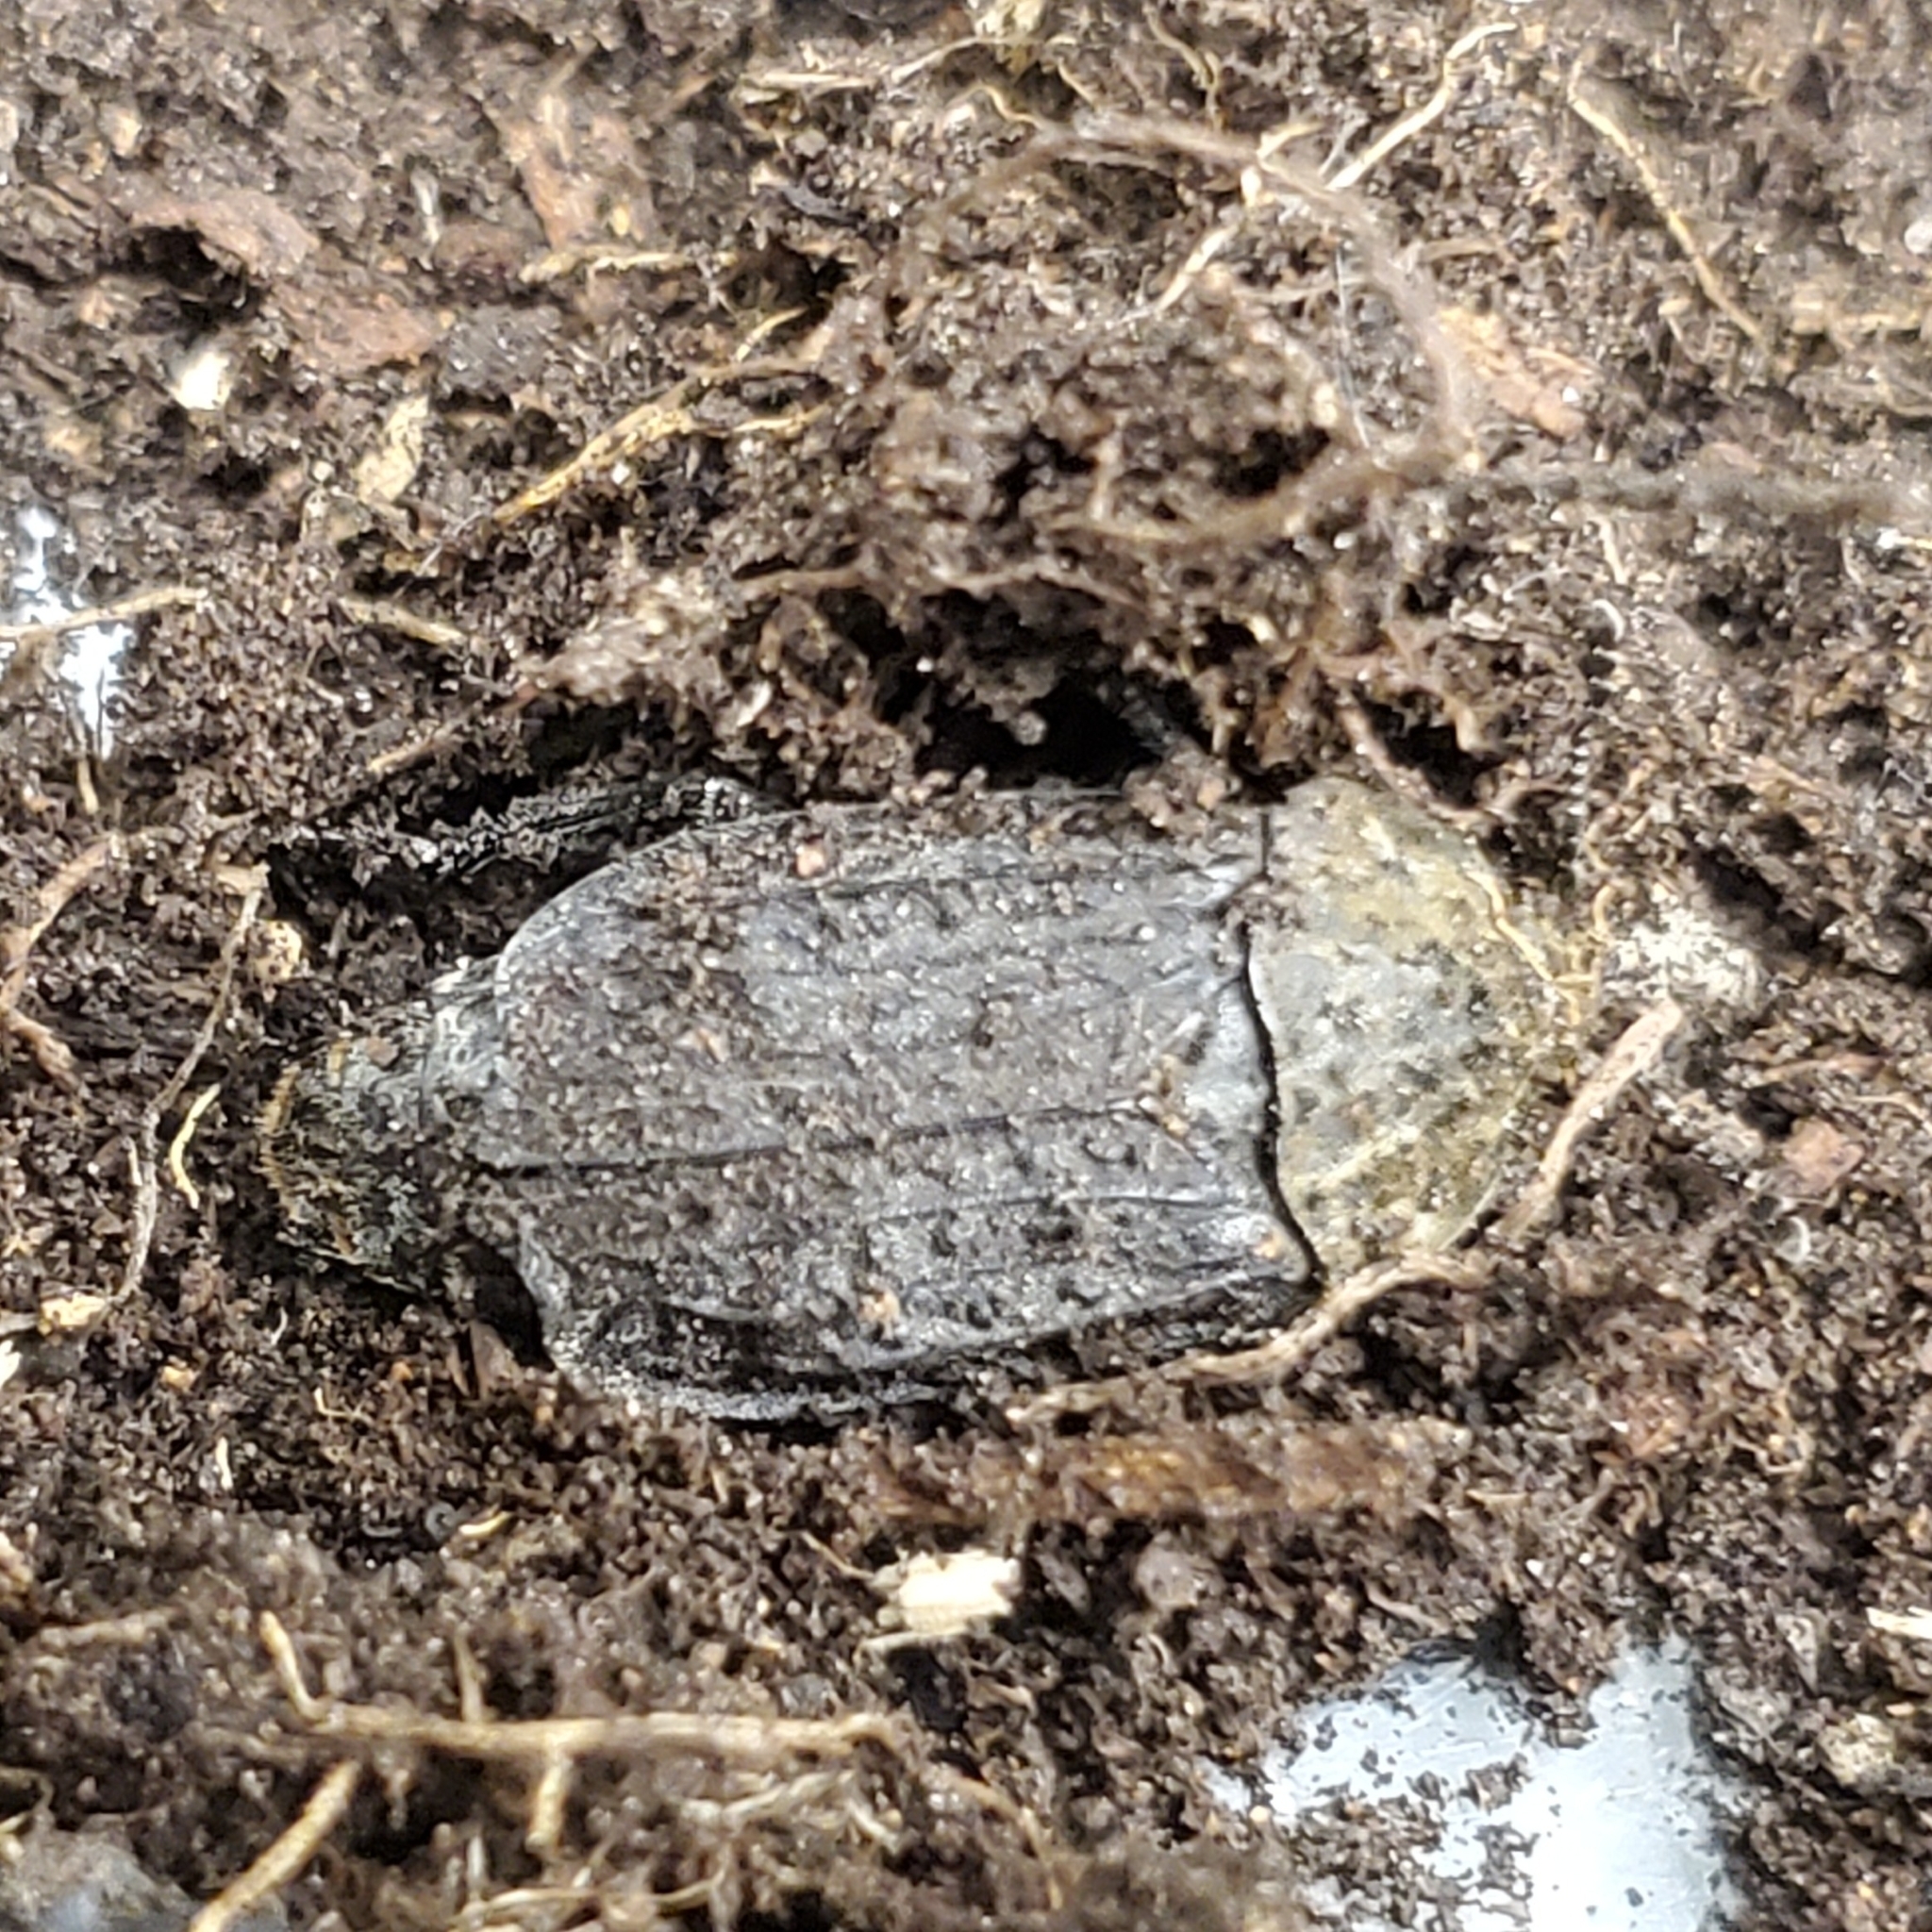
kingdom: Animalia
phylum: Arthropoda
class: Insecta
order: Coleoptera
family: Staphylinidae
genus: Thanatophilus
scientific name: Thanatophilus lapponicus
